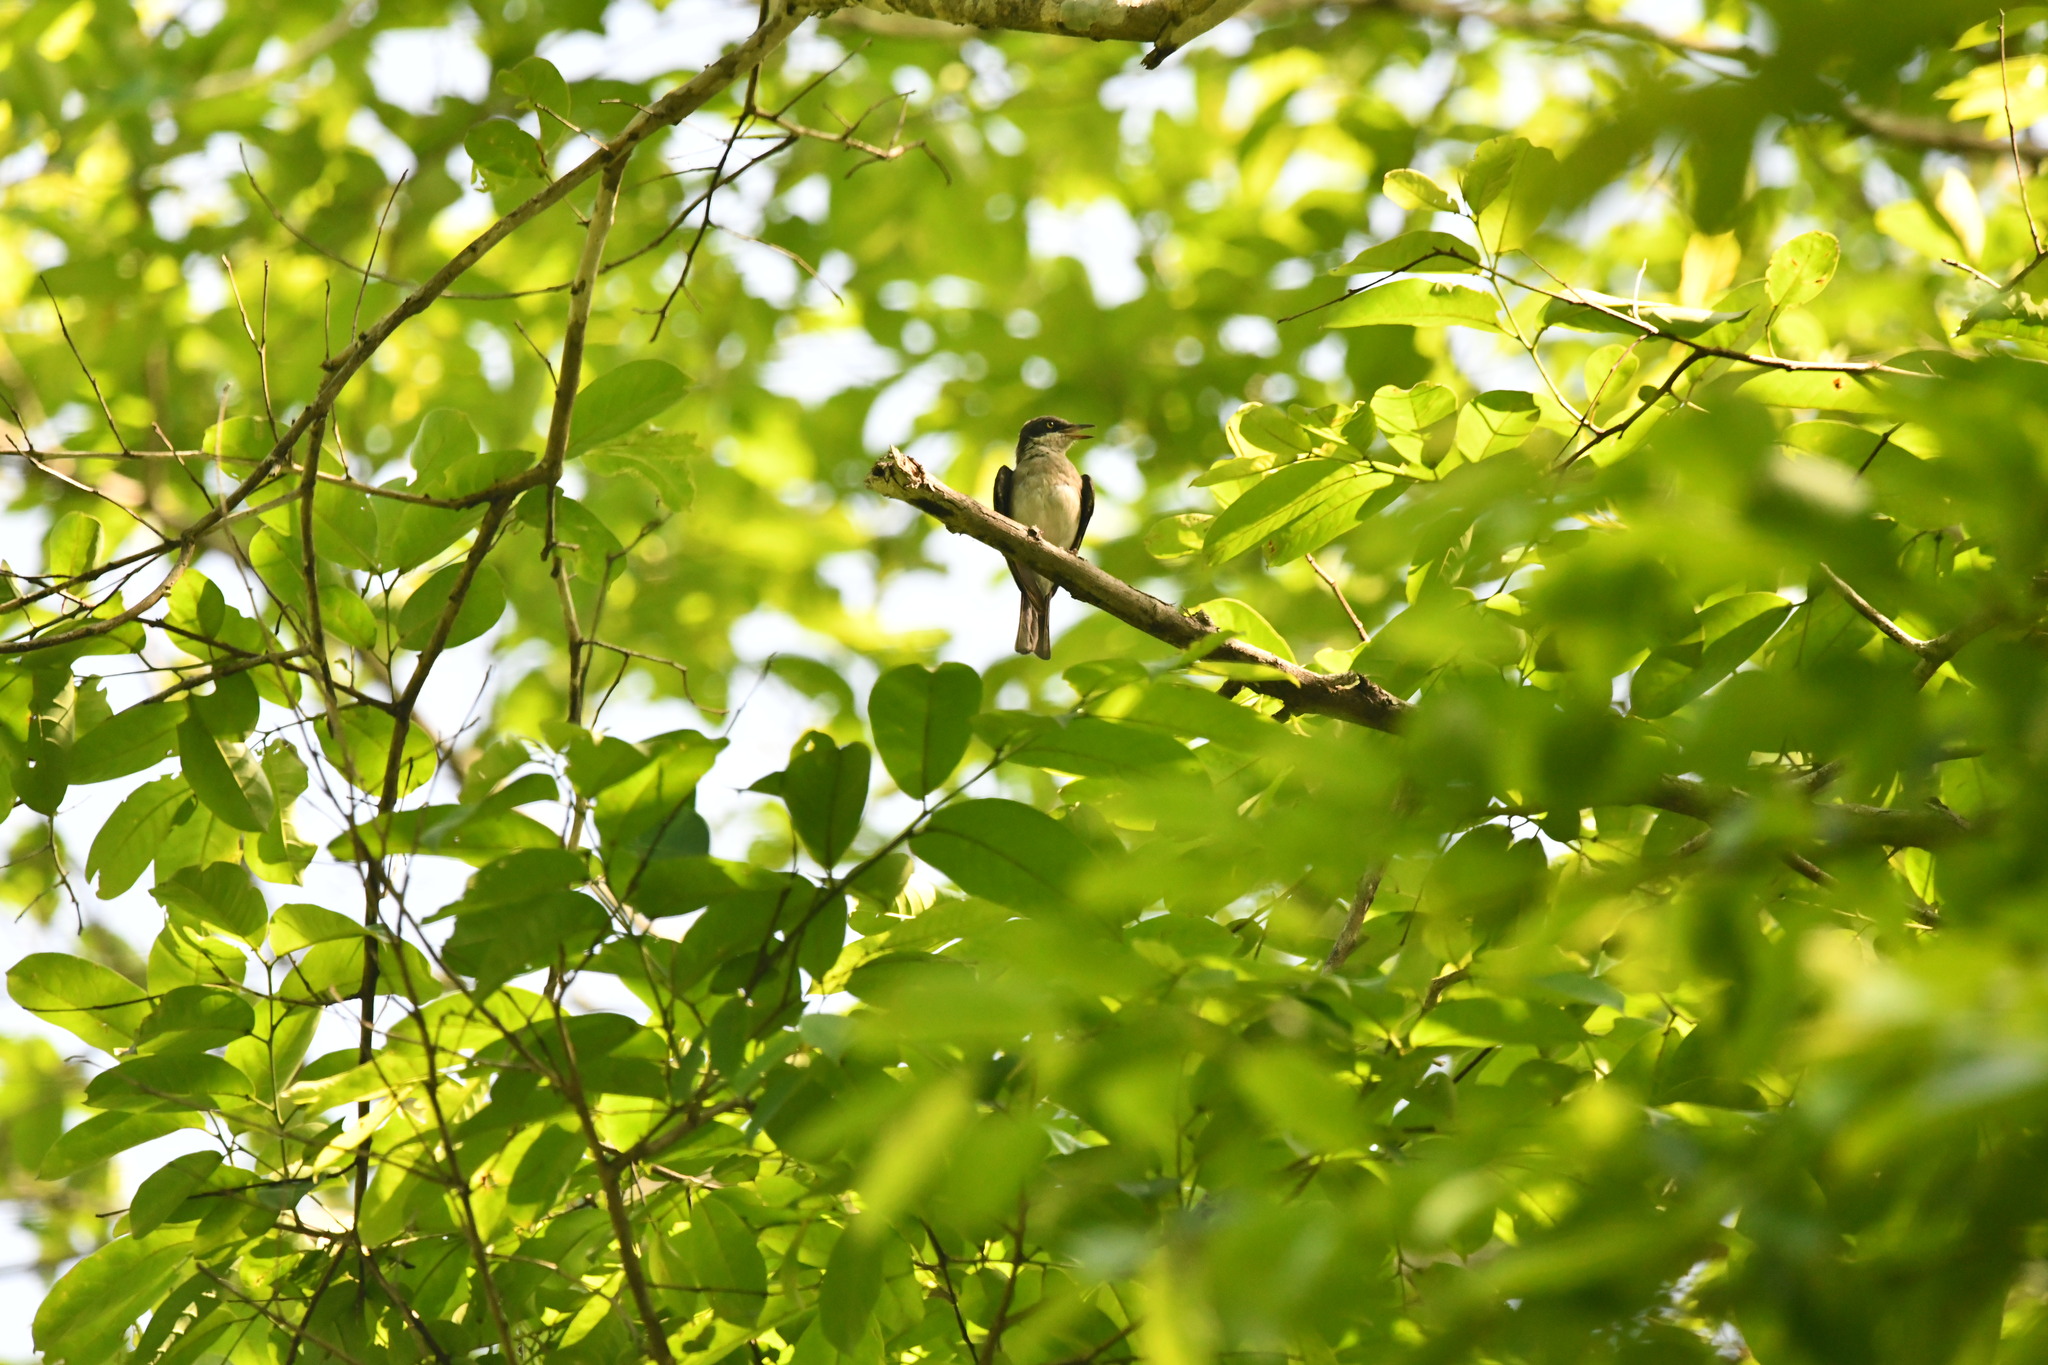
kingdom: Animalia
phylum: Chordata
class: Aves
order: Passeriformes
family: Tephrodornithidae
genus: Tephrodornis
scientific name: Tephrodornis sylvicola
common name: Malabar woodshrike
